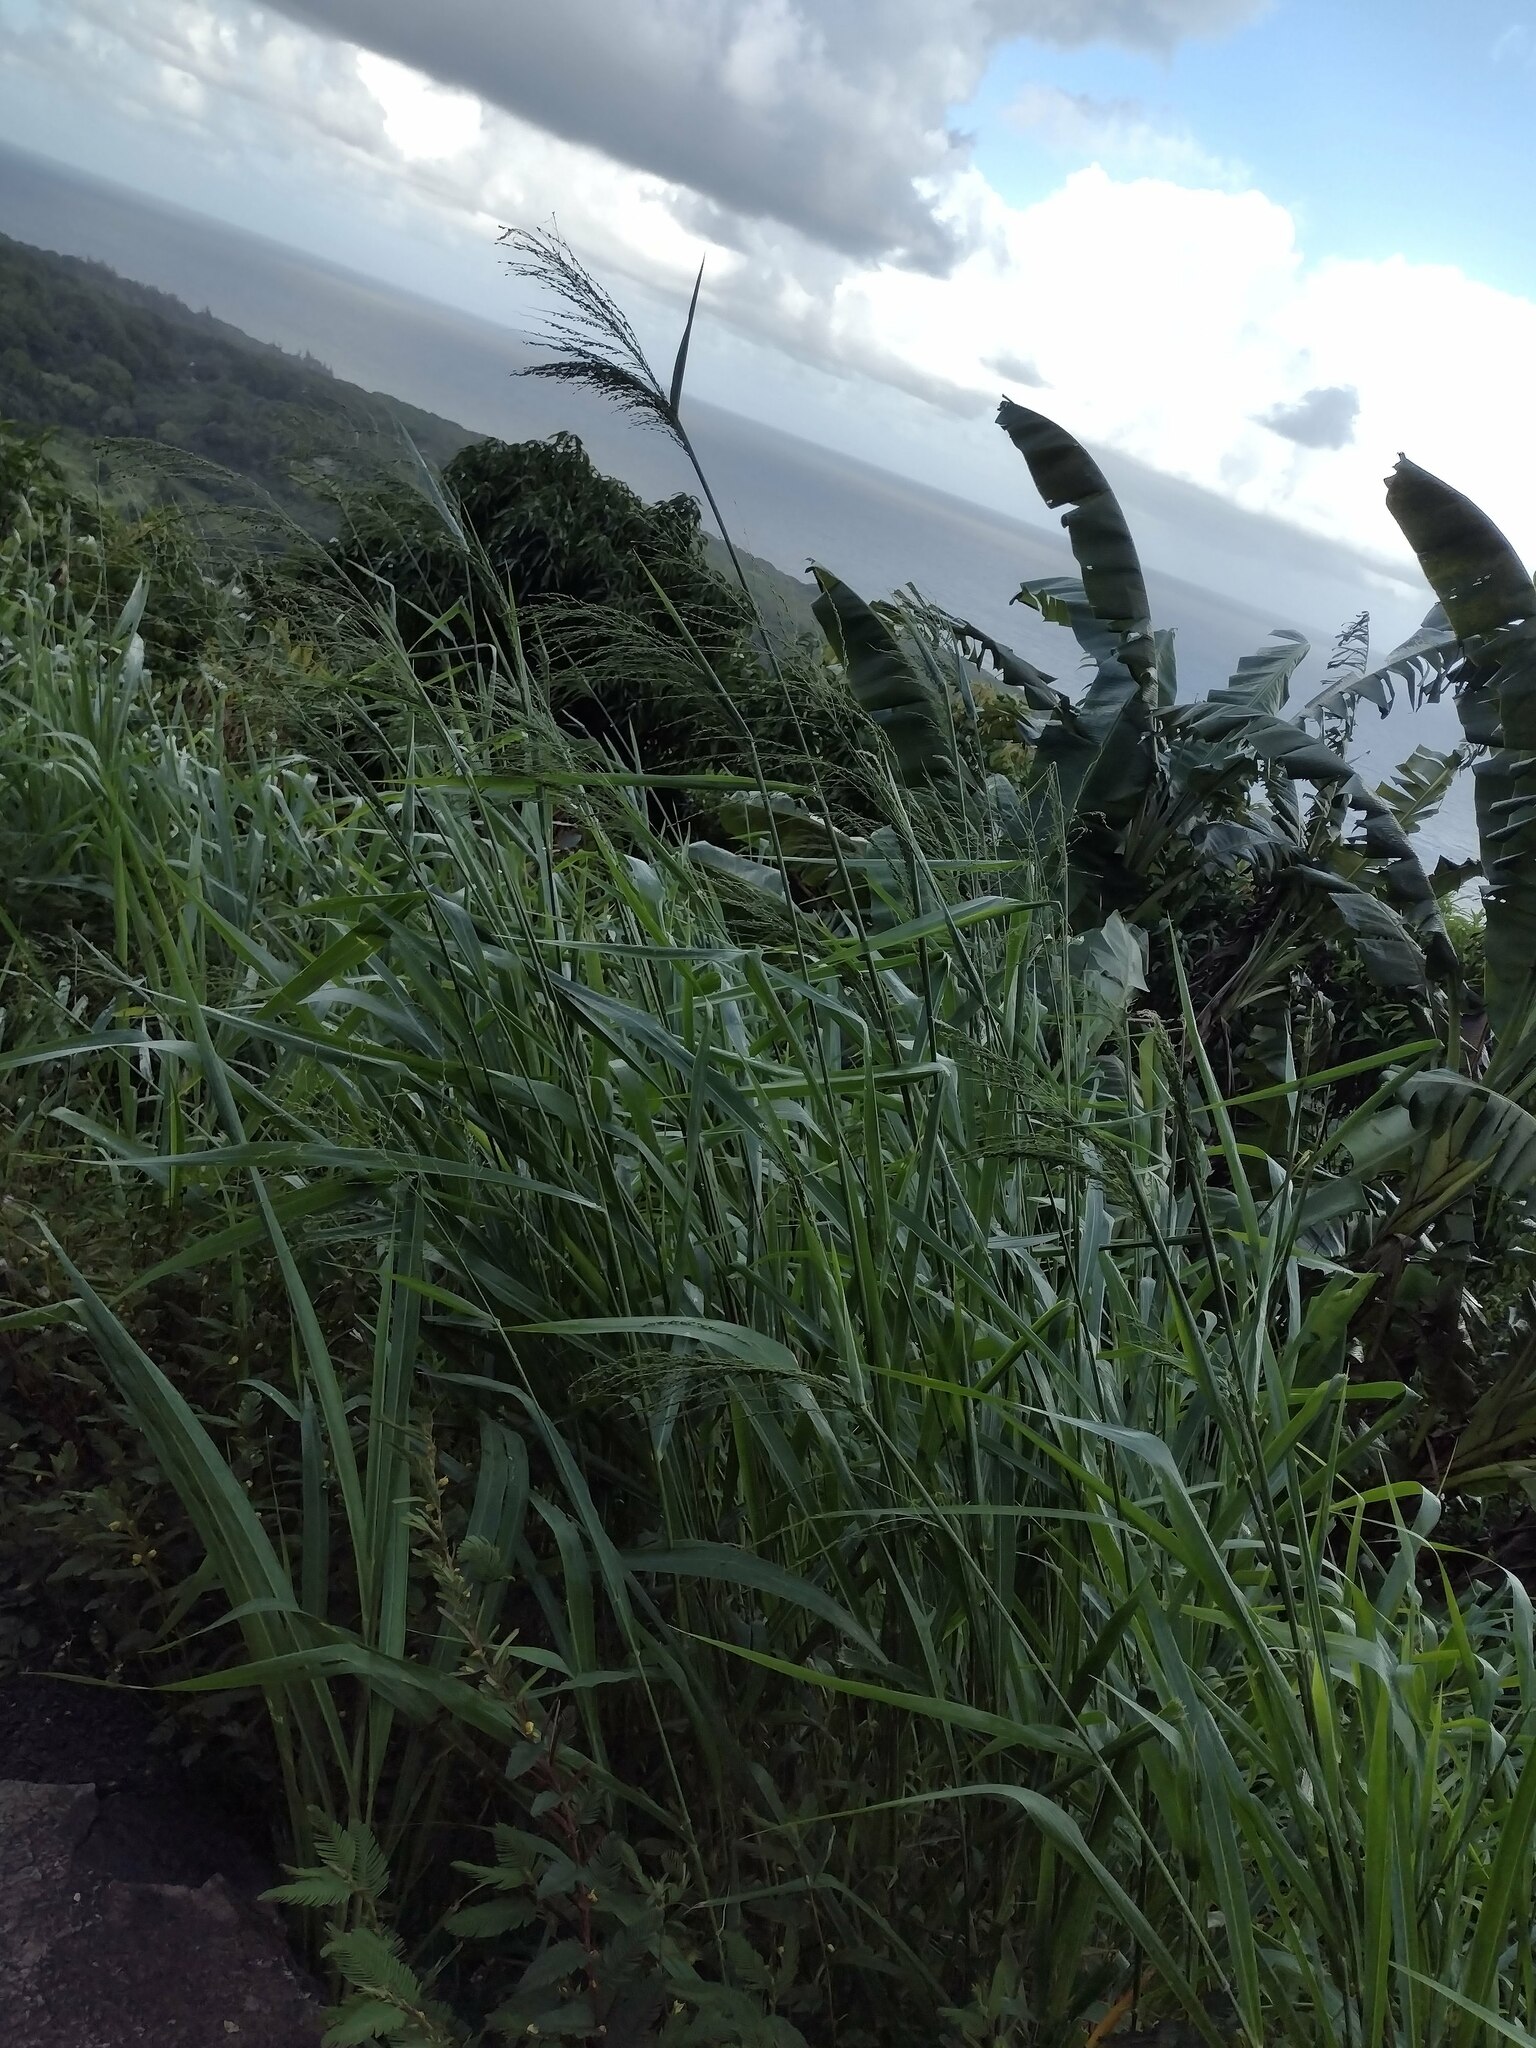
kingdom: Plantae
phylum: Tracheophyta
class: Liliopsida
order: Poales
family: Poaceae
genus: Megathyrsus
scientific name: Megathyrsus maximus
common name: Guineagrass
